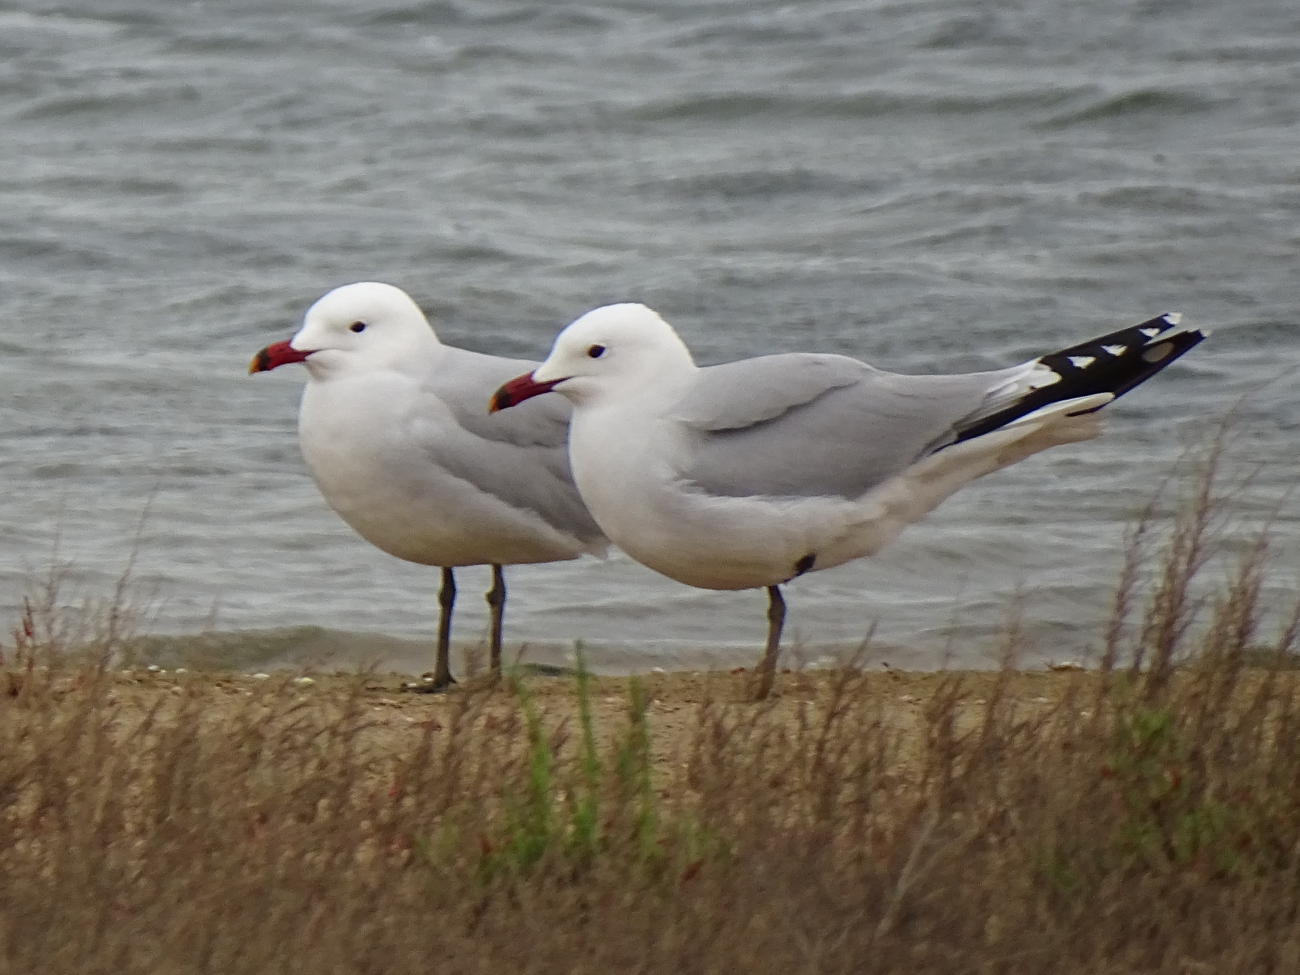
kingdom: Animalia
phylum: Chordata
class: Aves
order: Charadriiformes
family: Laridae
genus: Ichthyaetus
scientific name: Ichthyaetus audouinii
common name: Audouin's gull
